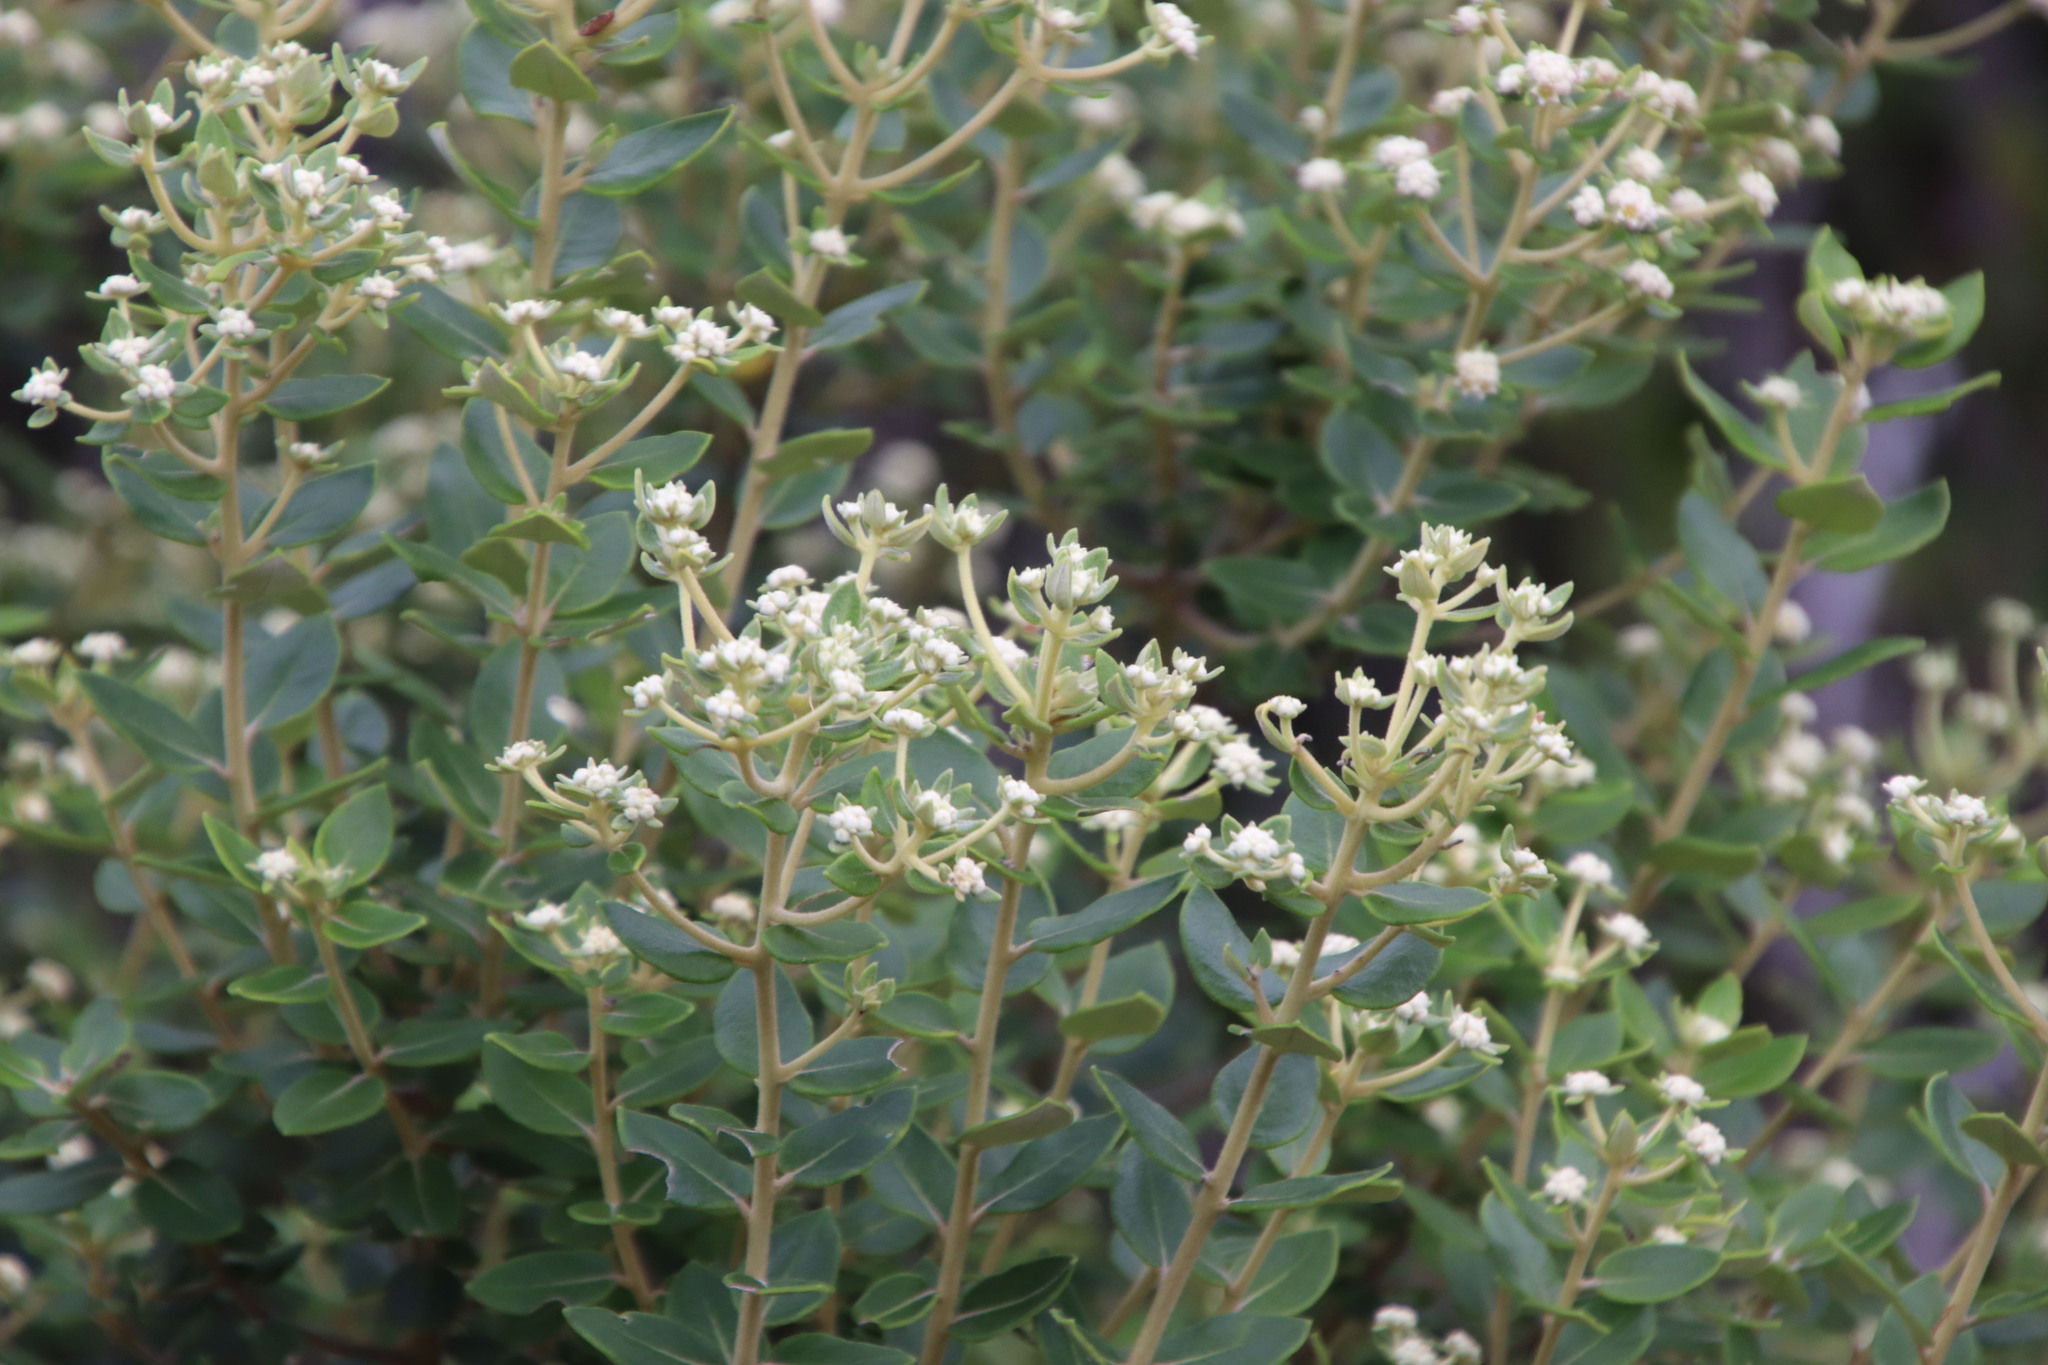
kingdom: Plantae
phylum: Tracheophyta
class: Magnoliopsida
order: Rosales
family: Rhamnaceae
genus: Phylica
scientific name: Phylica buxifolia
